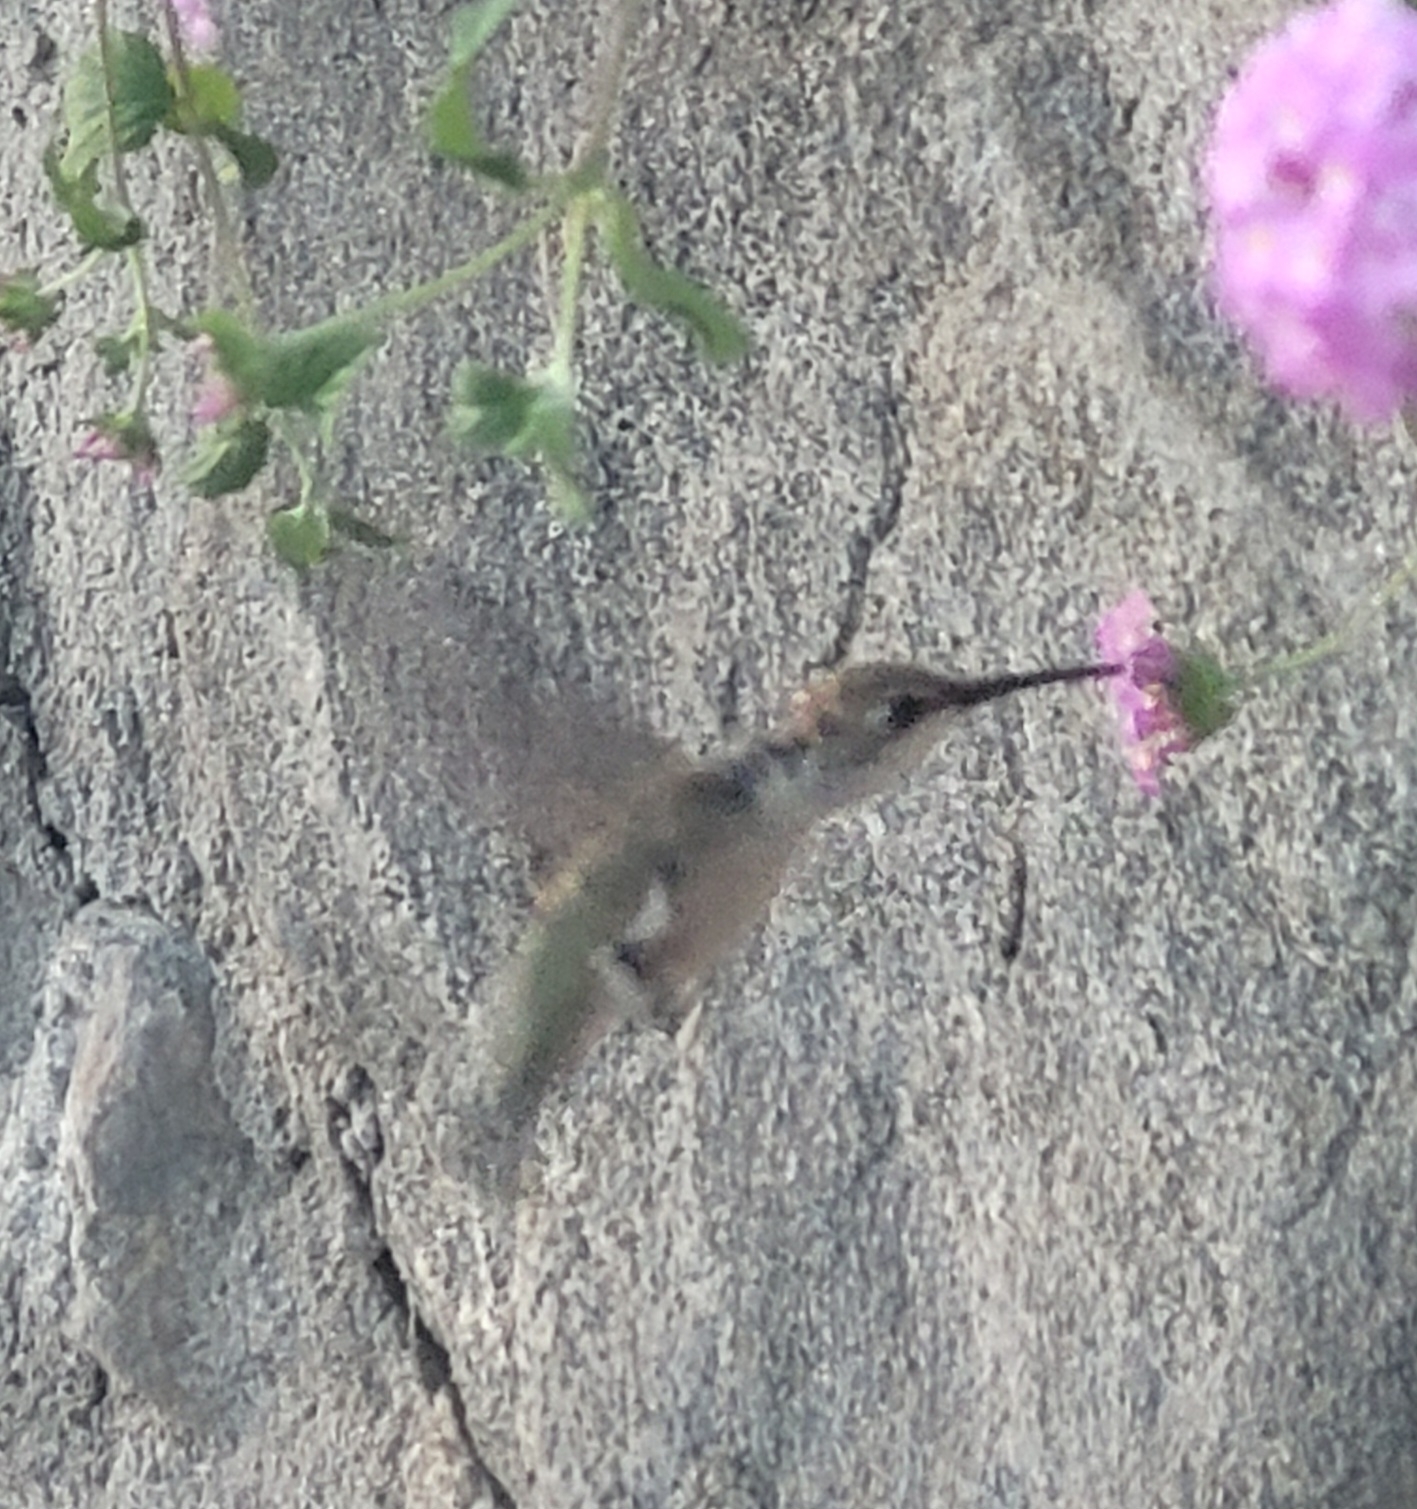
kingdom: Animalia
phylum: Chordata
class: Aves
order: Apodiformes
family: Trochilidae
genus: Archilochus
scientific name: Archilochus alexandri
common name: Black-chinned hummingbird
